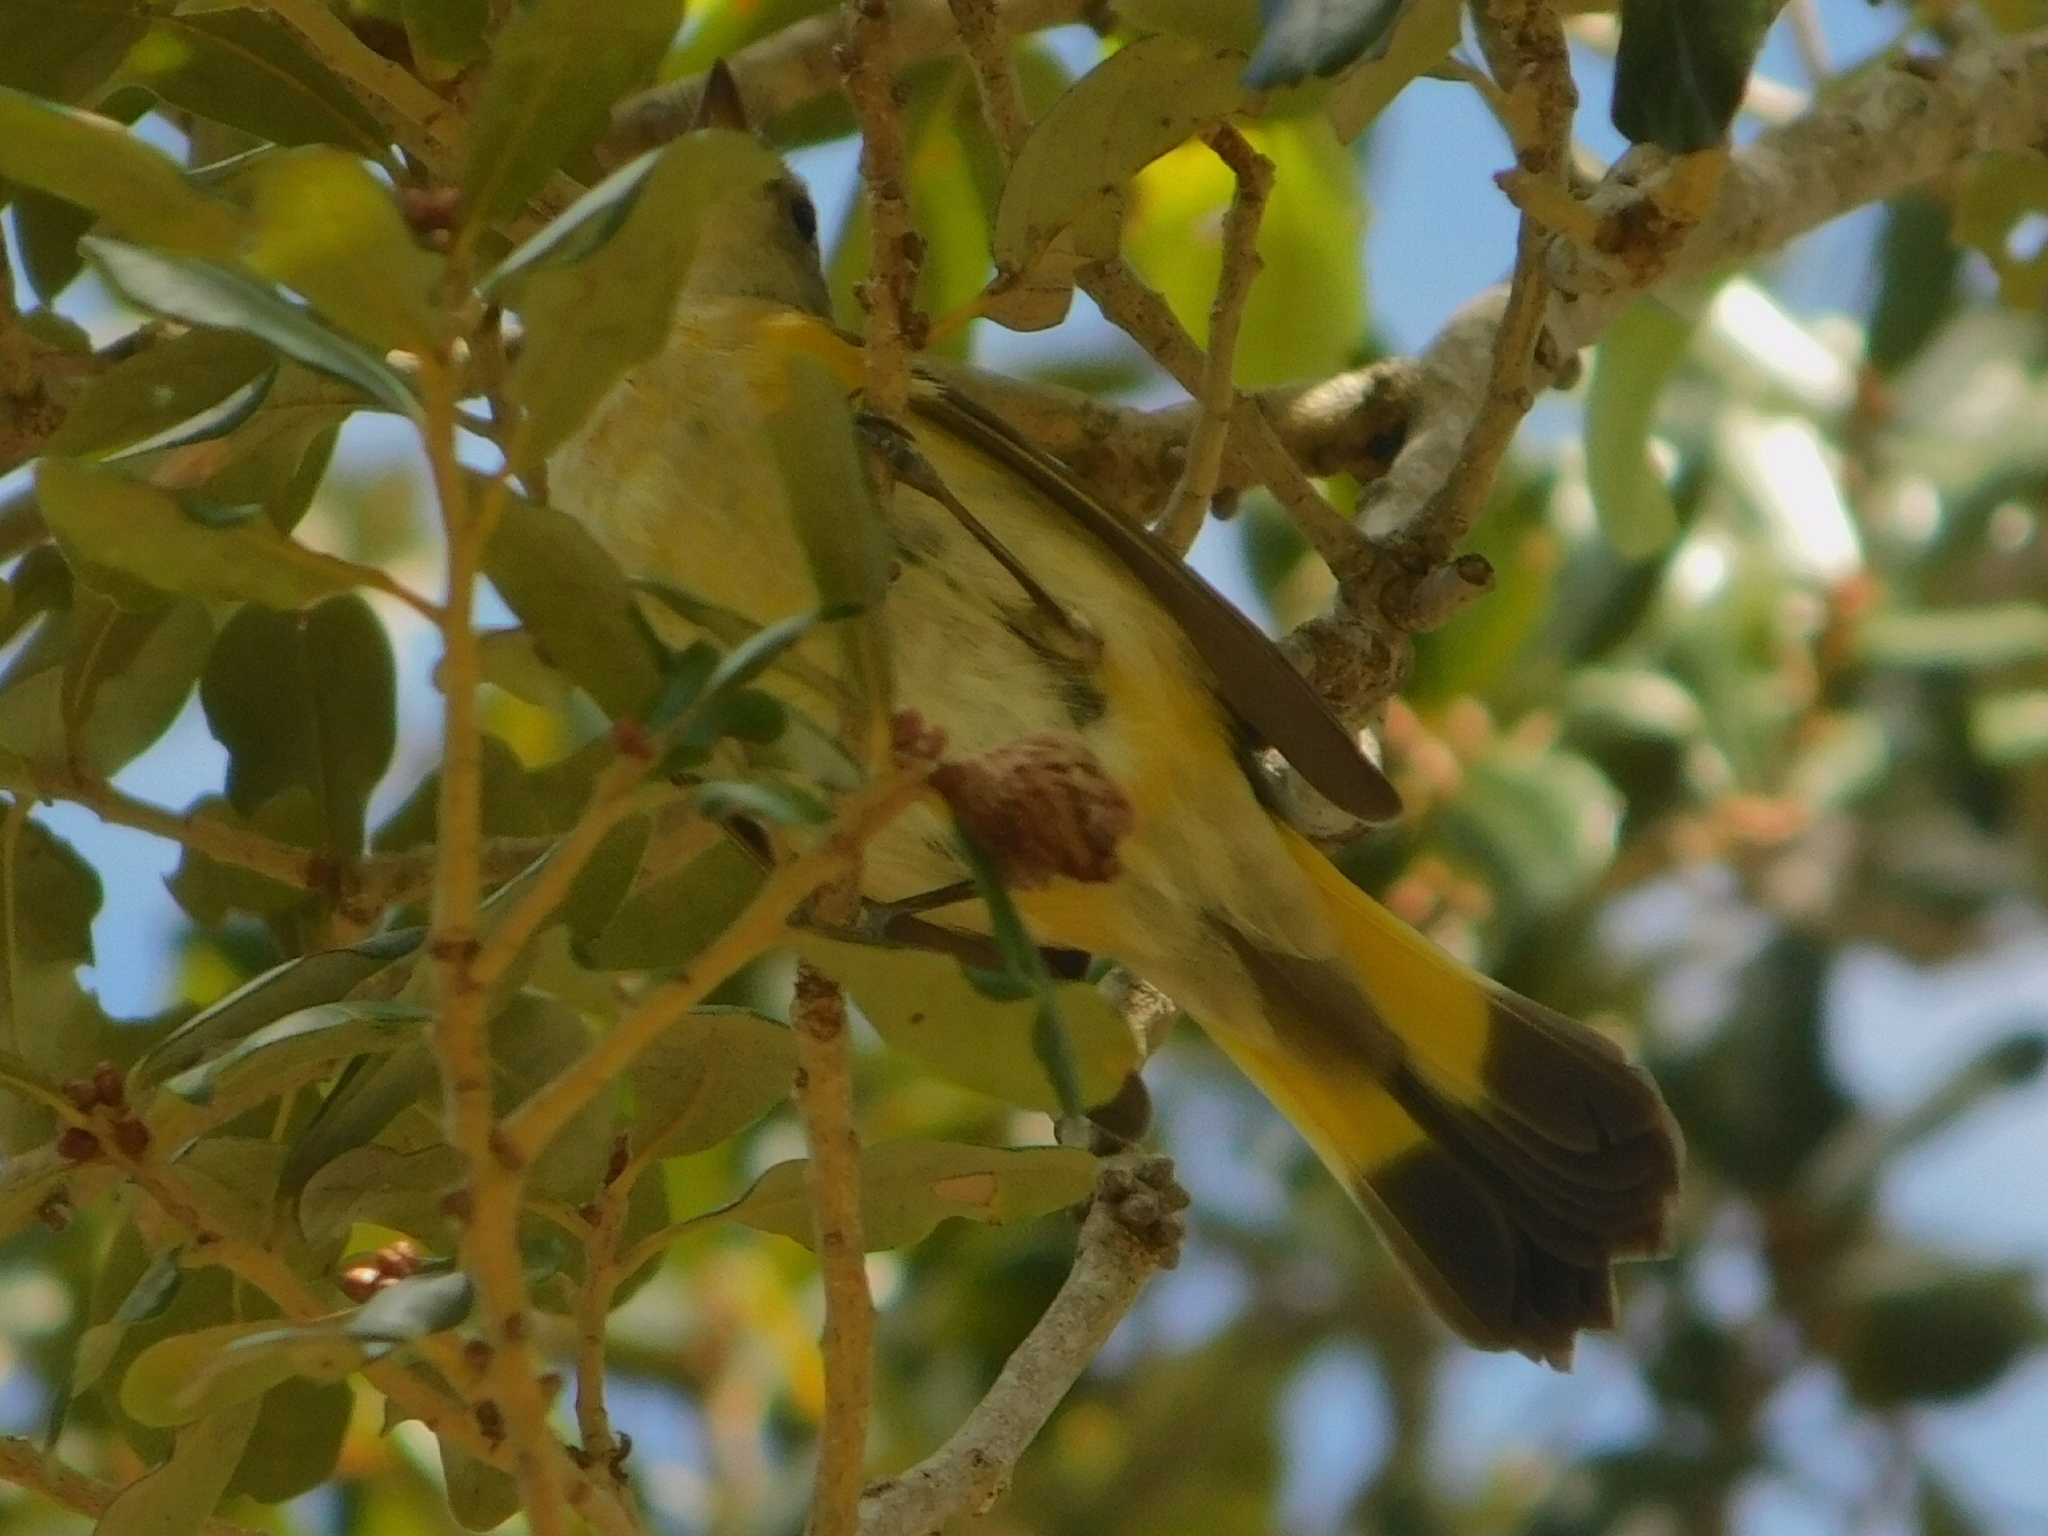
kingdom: Animalia
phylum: Chordata
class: Aves
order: Passeriformes
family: Parulidae
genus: Setophaga
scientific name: Setophaga ruticilla
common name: American redstart
